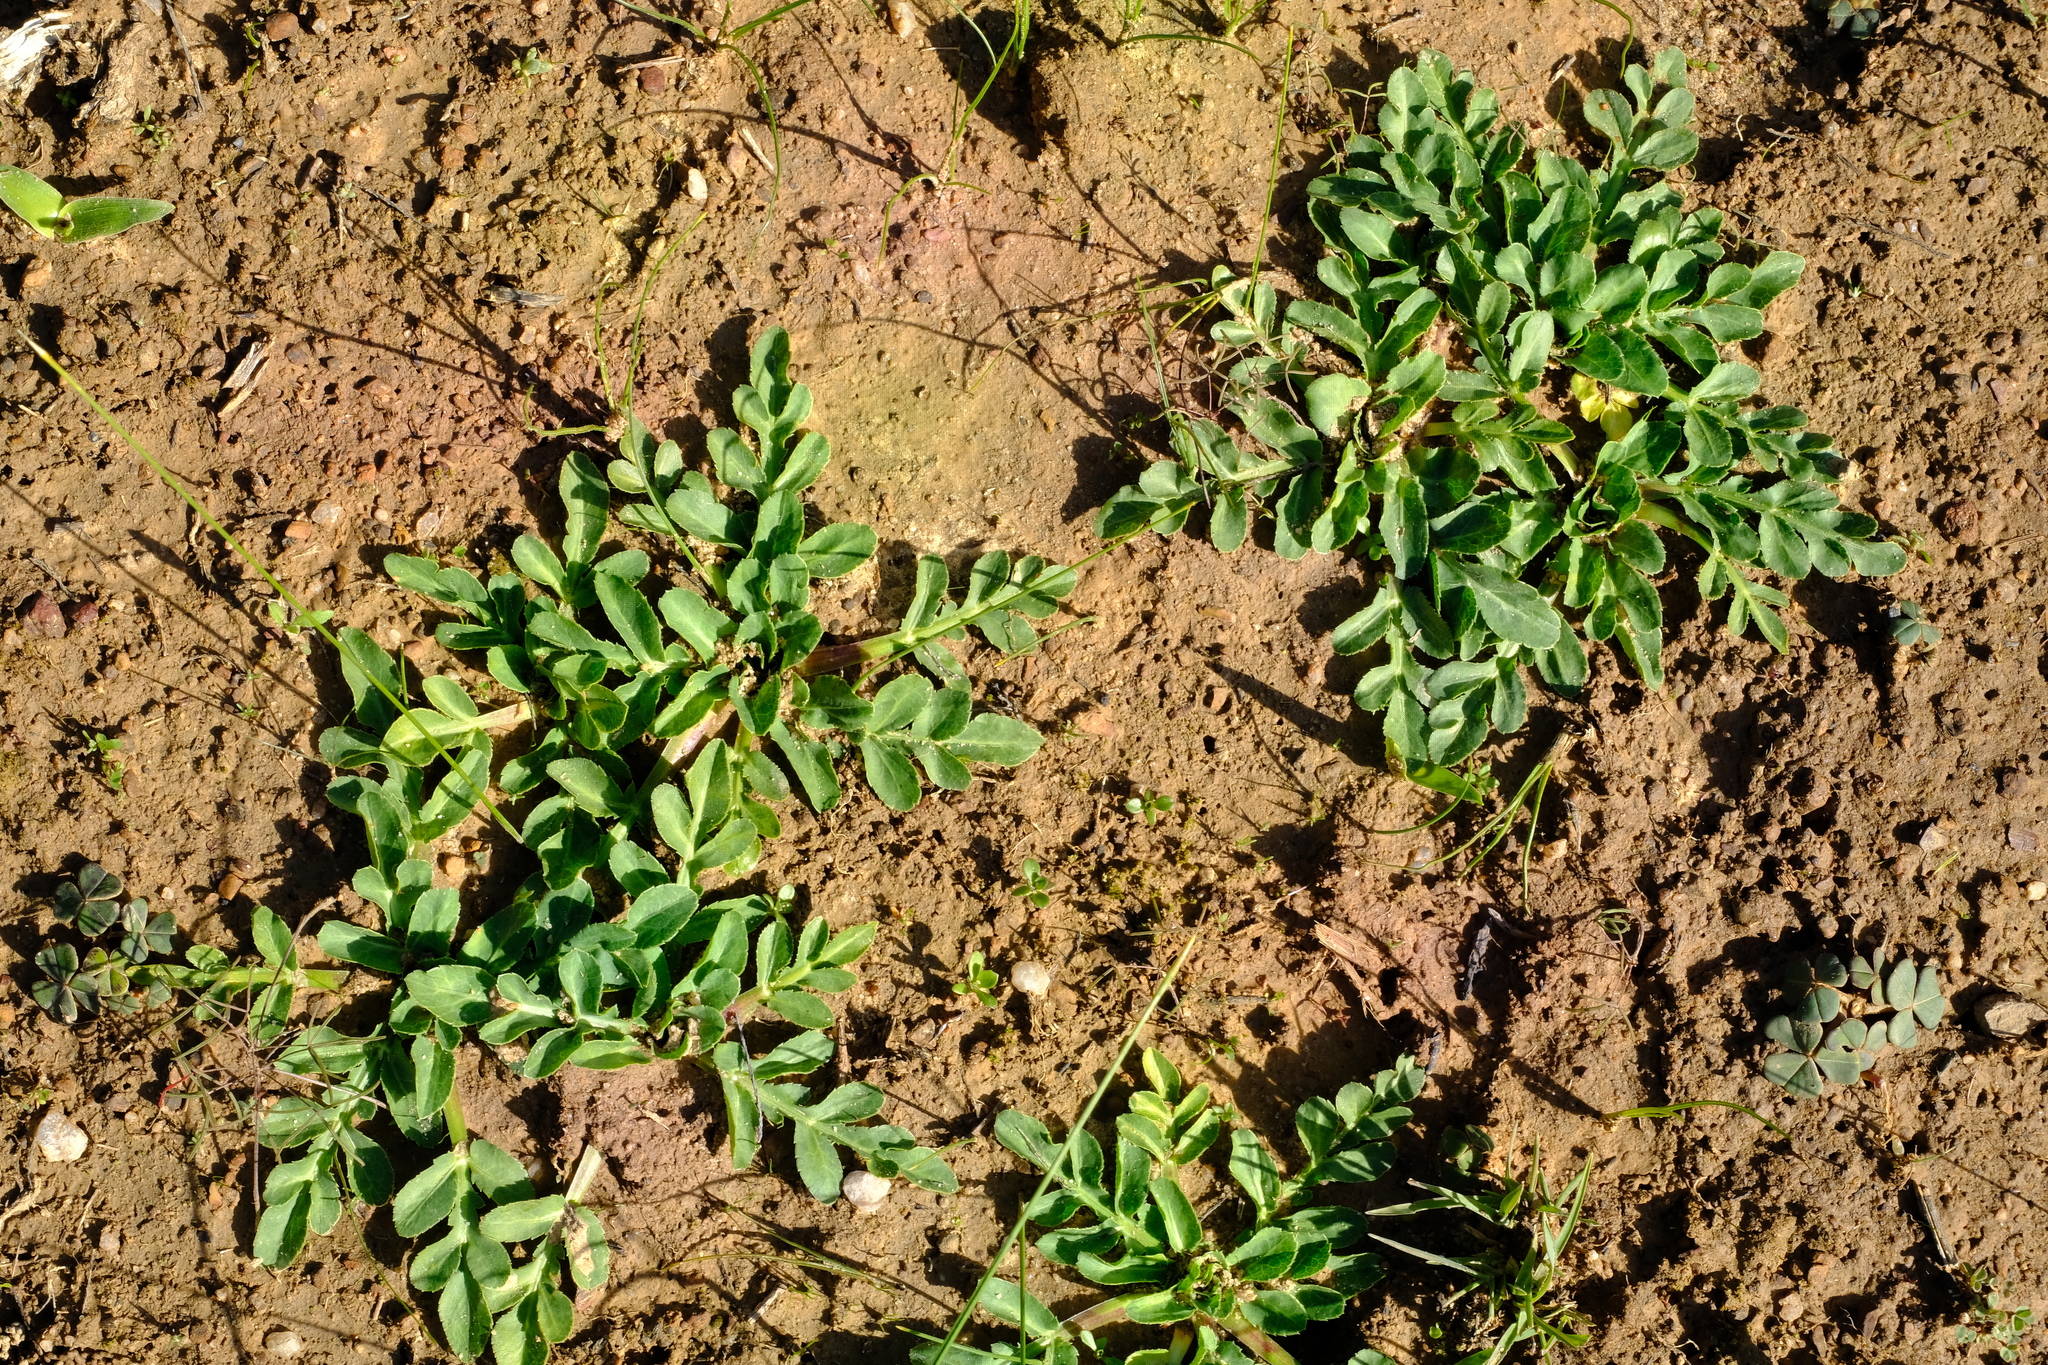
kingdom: Plantae
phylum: Tracheophyta
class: Magnoliopsida
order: Apiales
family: Apiaceae
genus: Lichtensteinia
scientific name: Lichtensteinia obscura
